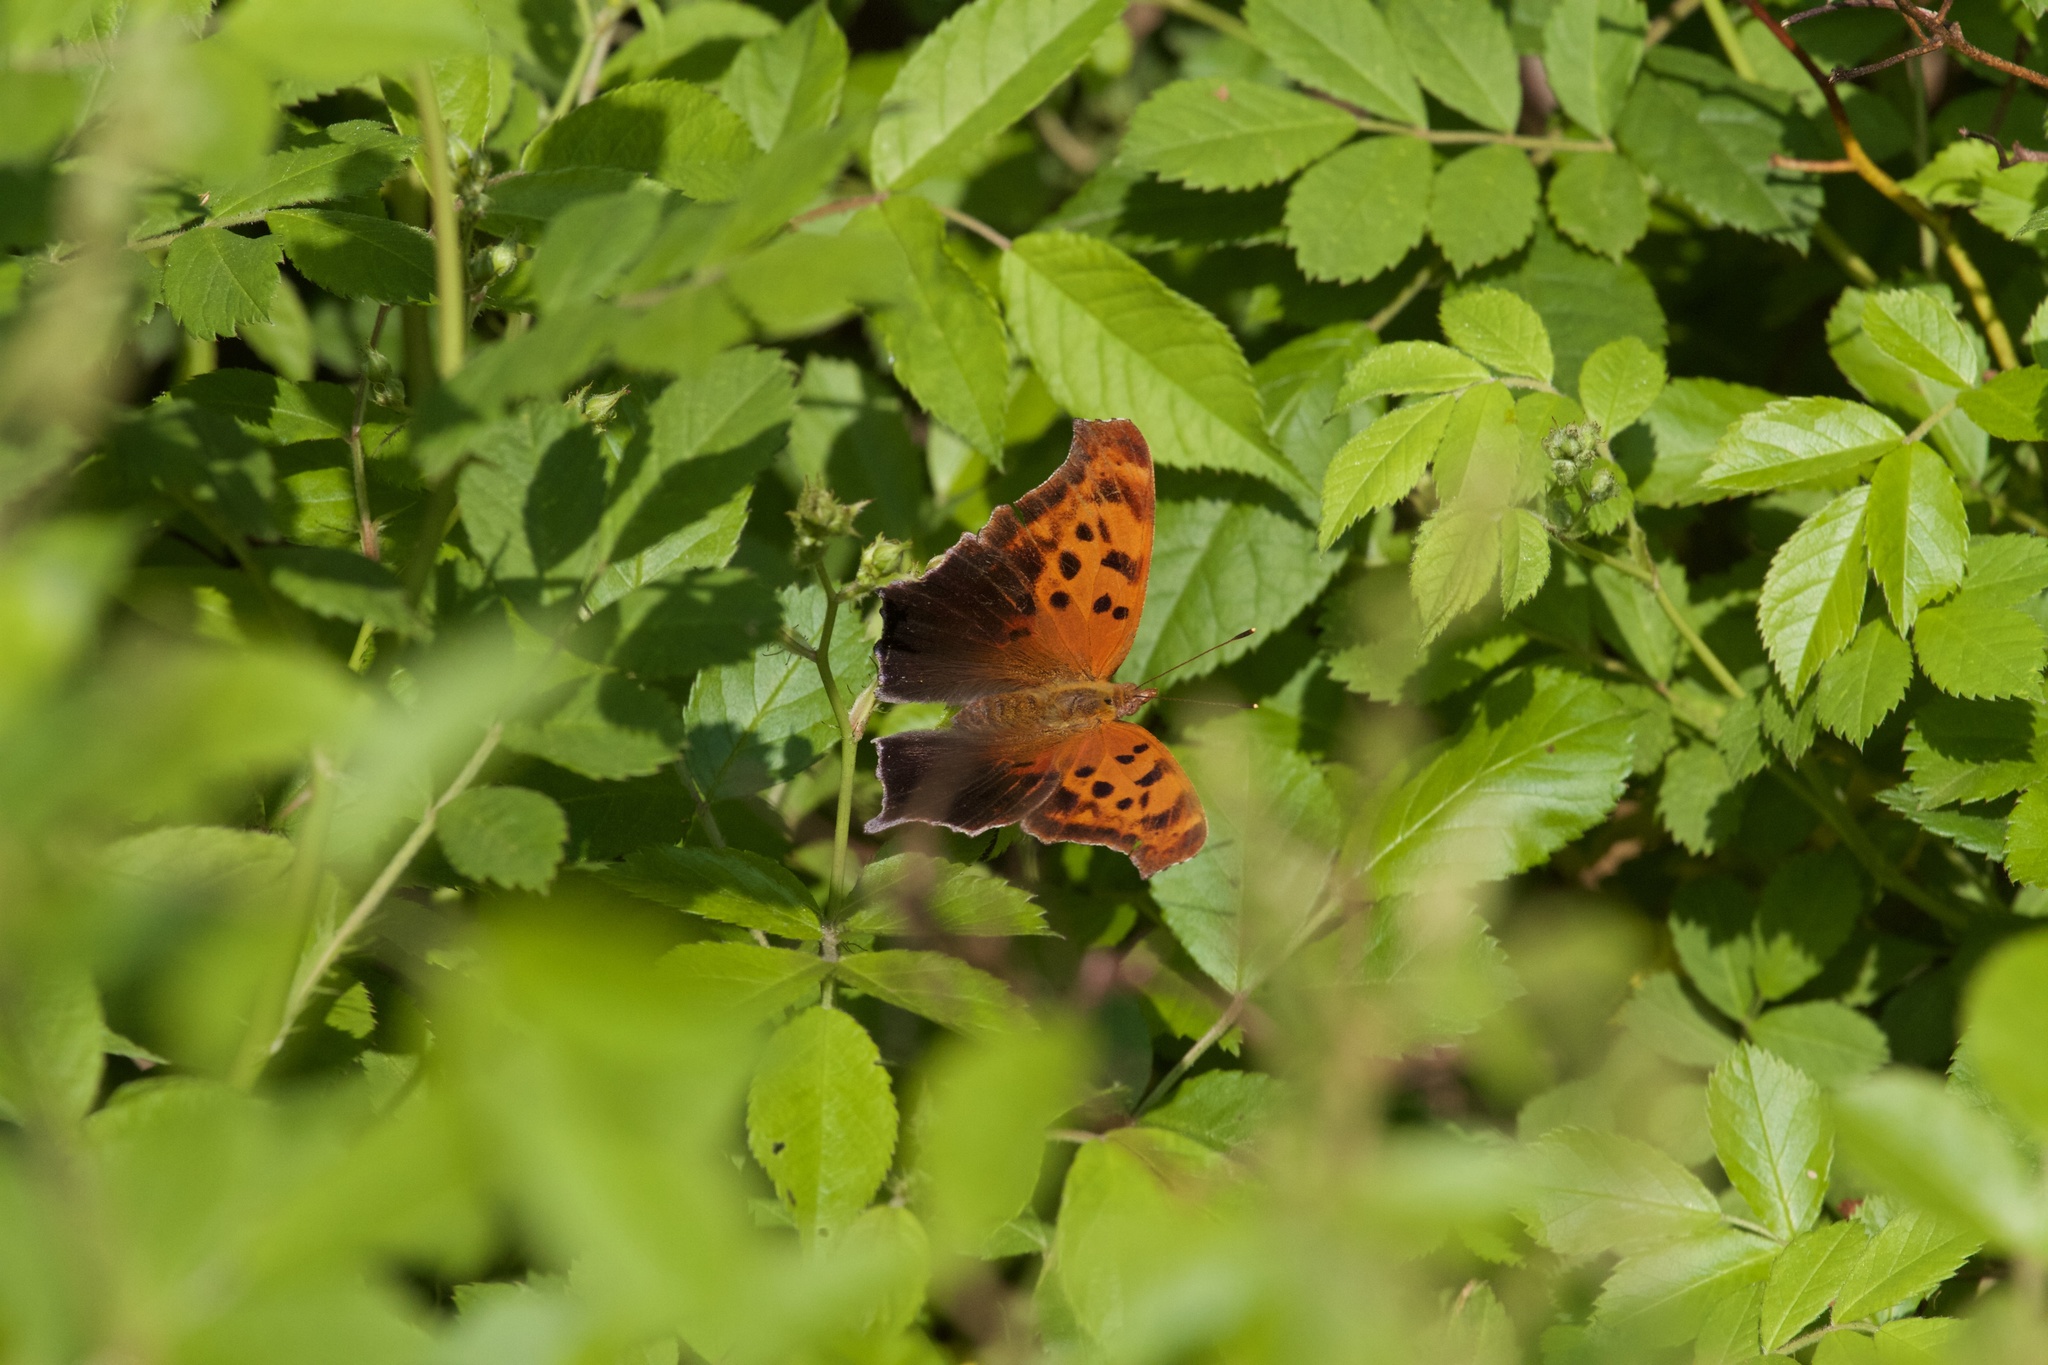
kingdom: Animalia
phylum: Arthropoda
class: Insecta
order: Lepidoptera
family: Nymphalidae
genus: Polygonia
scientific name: Polygonia interrogationis
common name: Question mark
